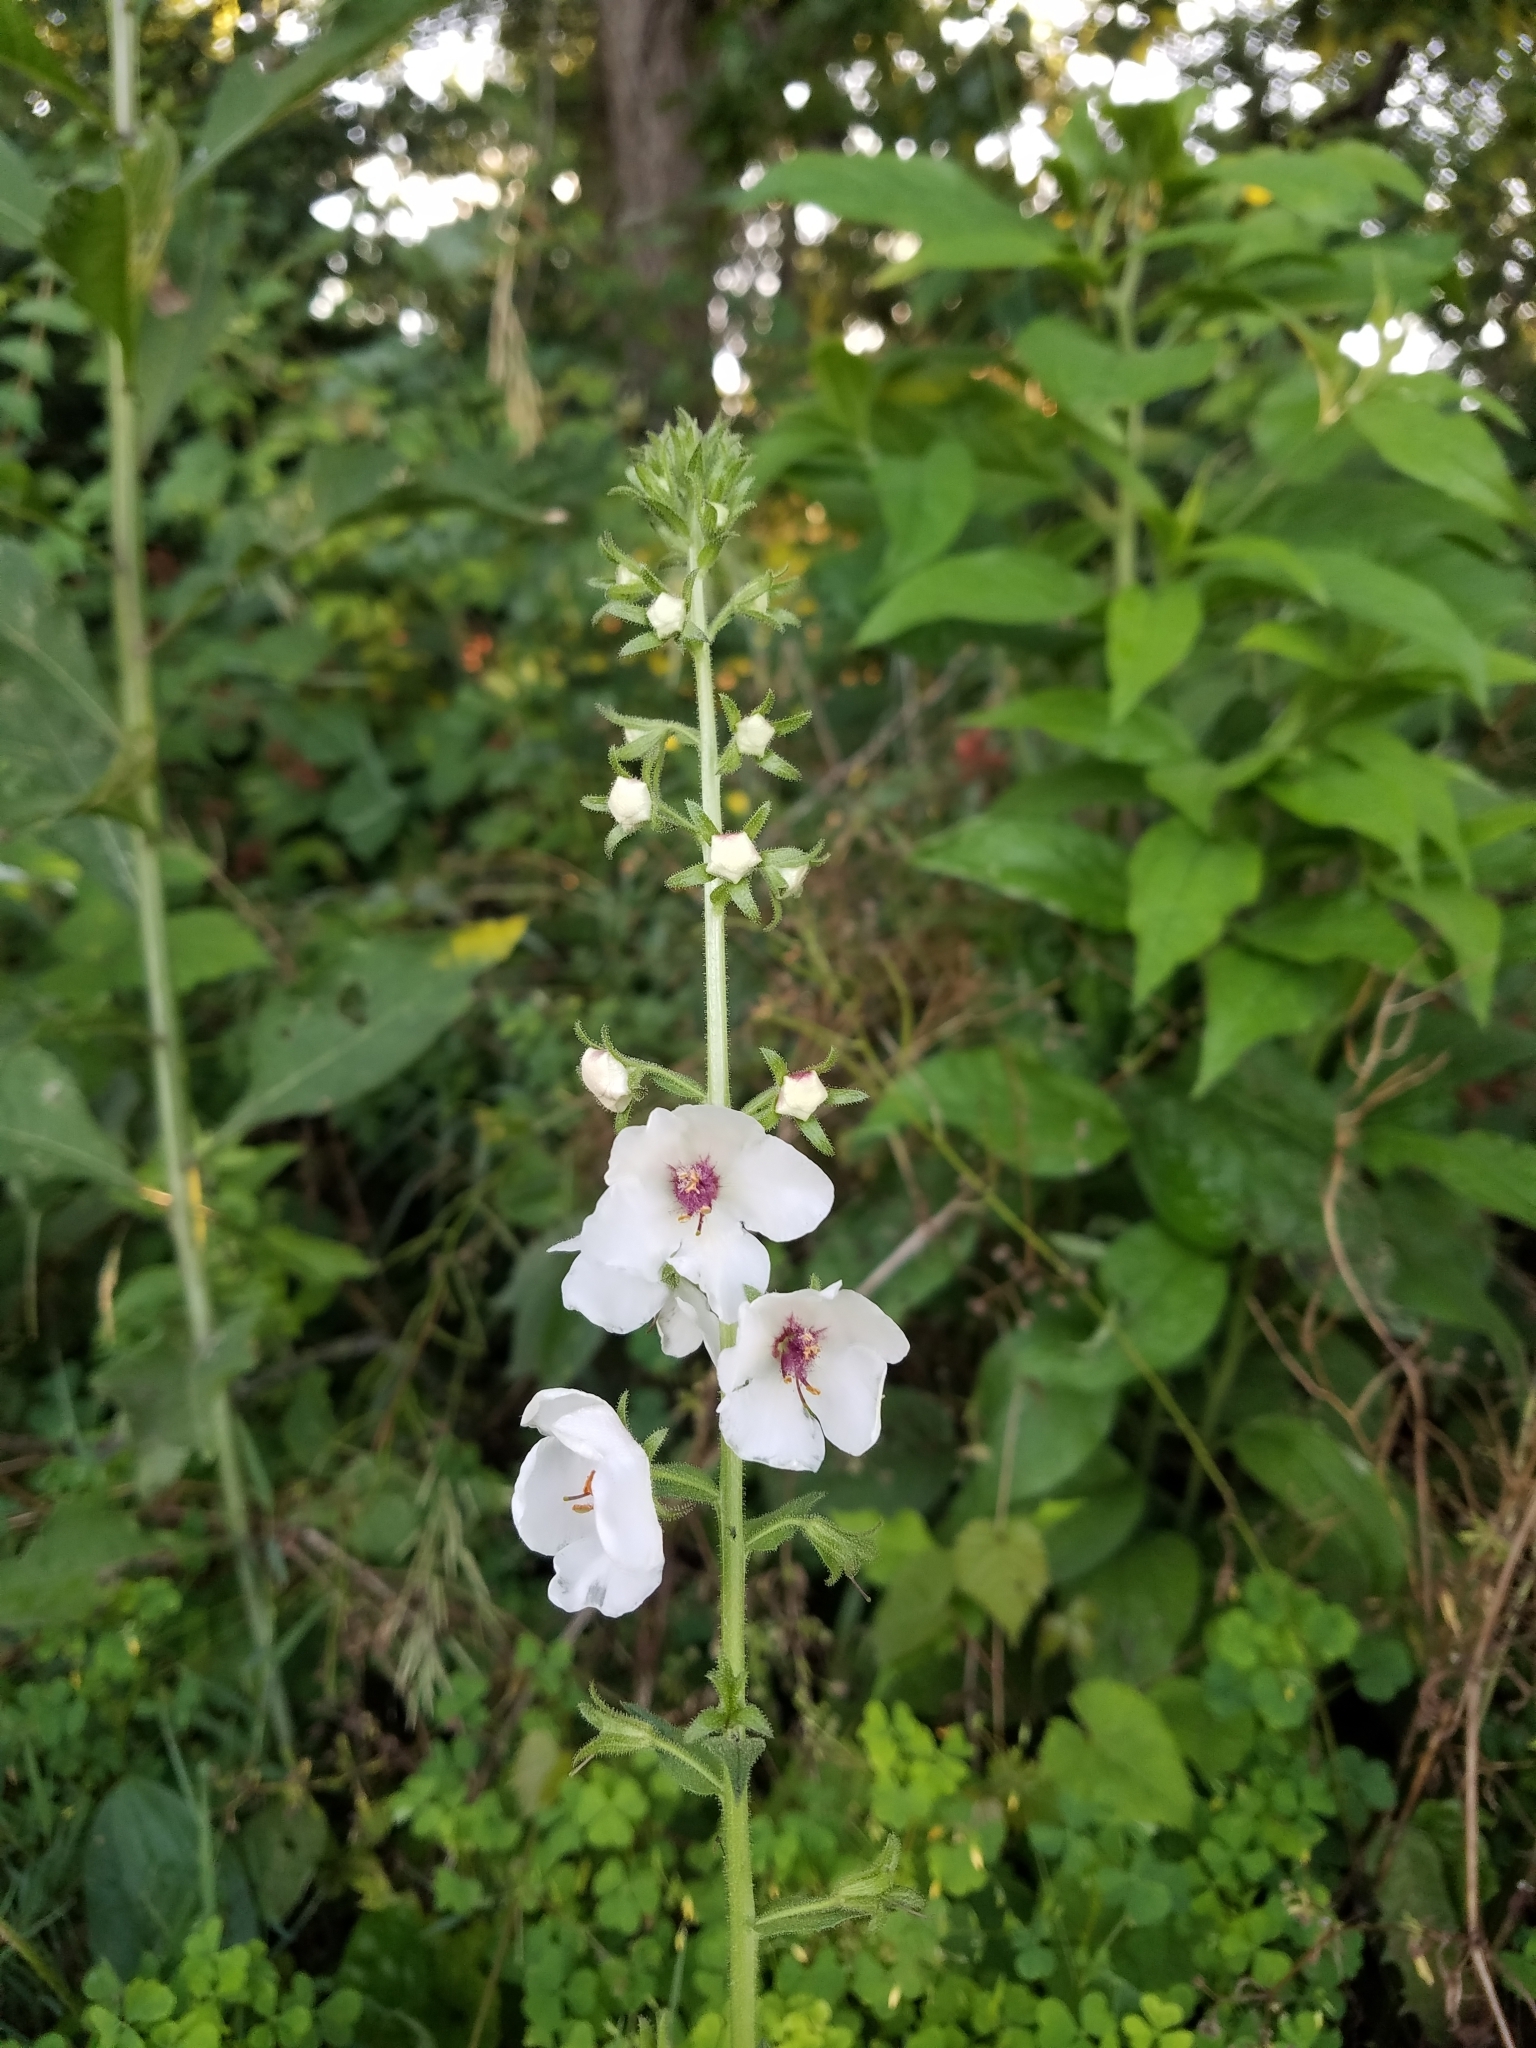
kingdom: Plantae
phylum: Tracheophyta
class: Magnoliopsida
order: Lamiales
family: Scrophulariaceae
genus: Verbascum
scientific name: Verbascum blattaria
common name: Moth mullein
